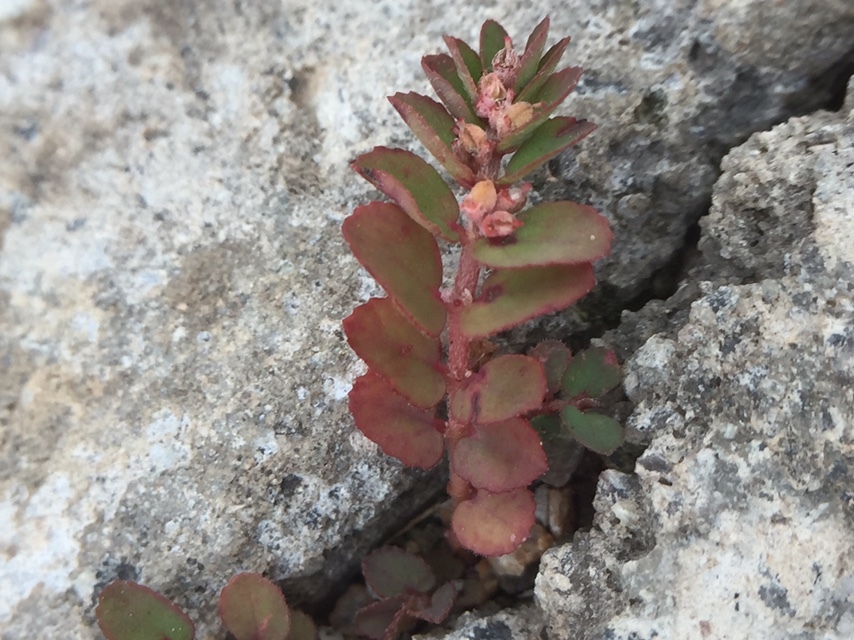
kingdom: Plantae
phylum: Tracheophyta
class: Magnoliopsida
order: Malpighiales
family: Euphorbiaceae
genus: Euphorbia
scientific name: Euphorbia thymifolia
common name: Gulf sandmat
